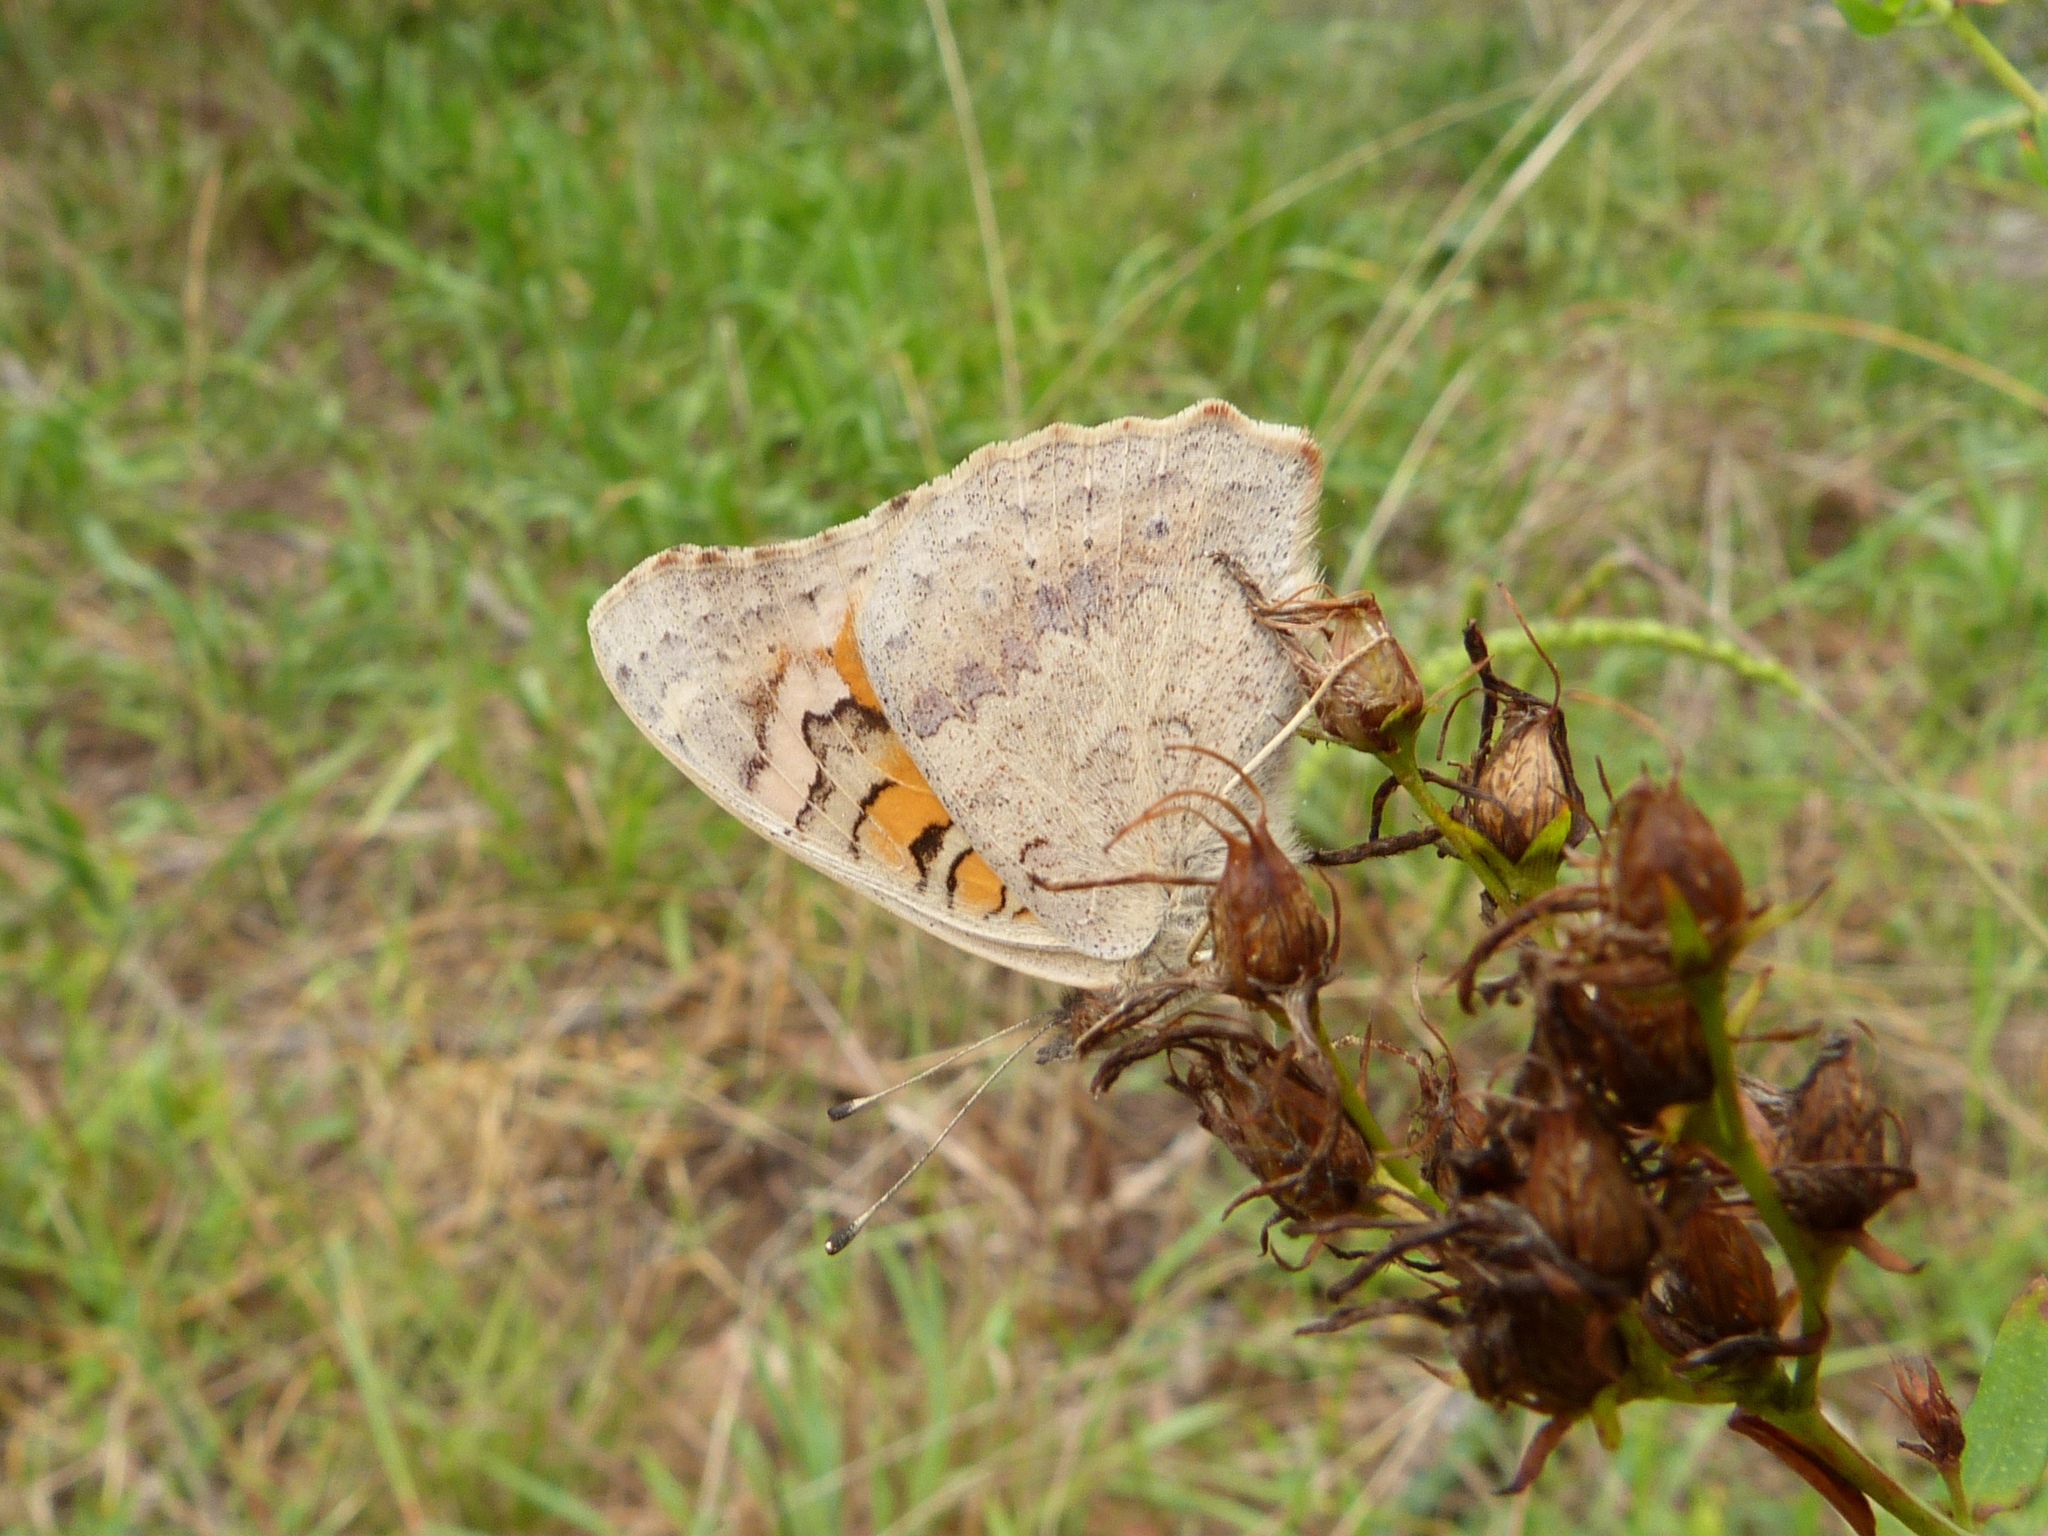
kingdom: Animalia
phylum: Arthropoda
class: Insecta
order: Lepidoptera
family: Nymphalidae
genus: Junonia
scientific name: Junonia villida
